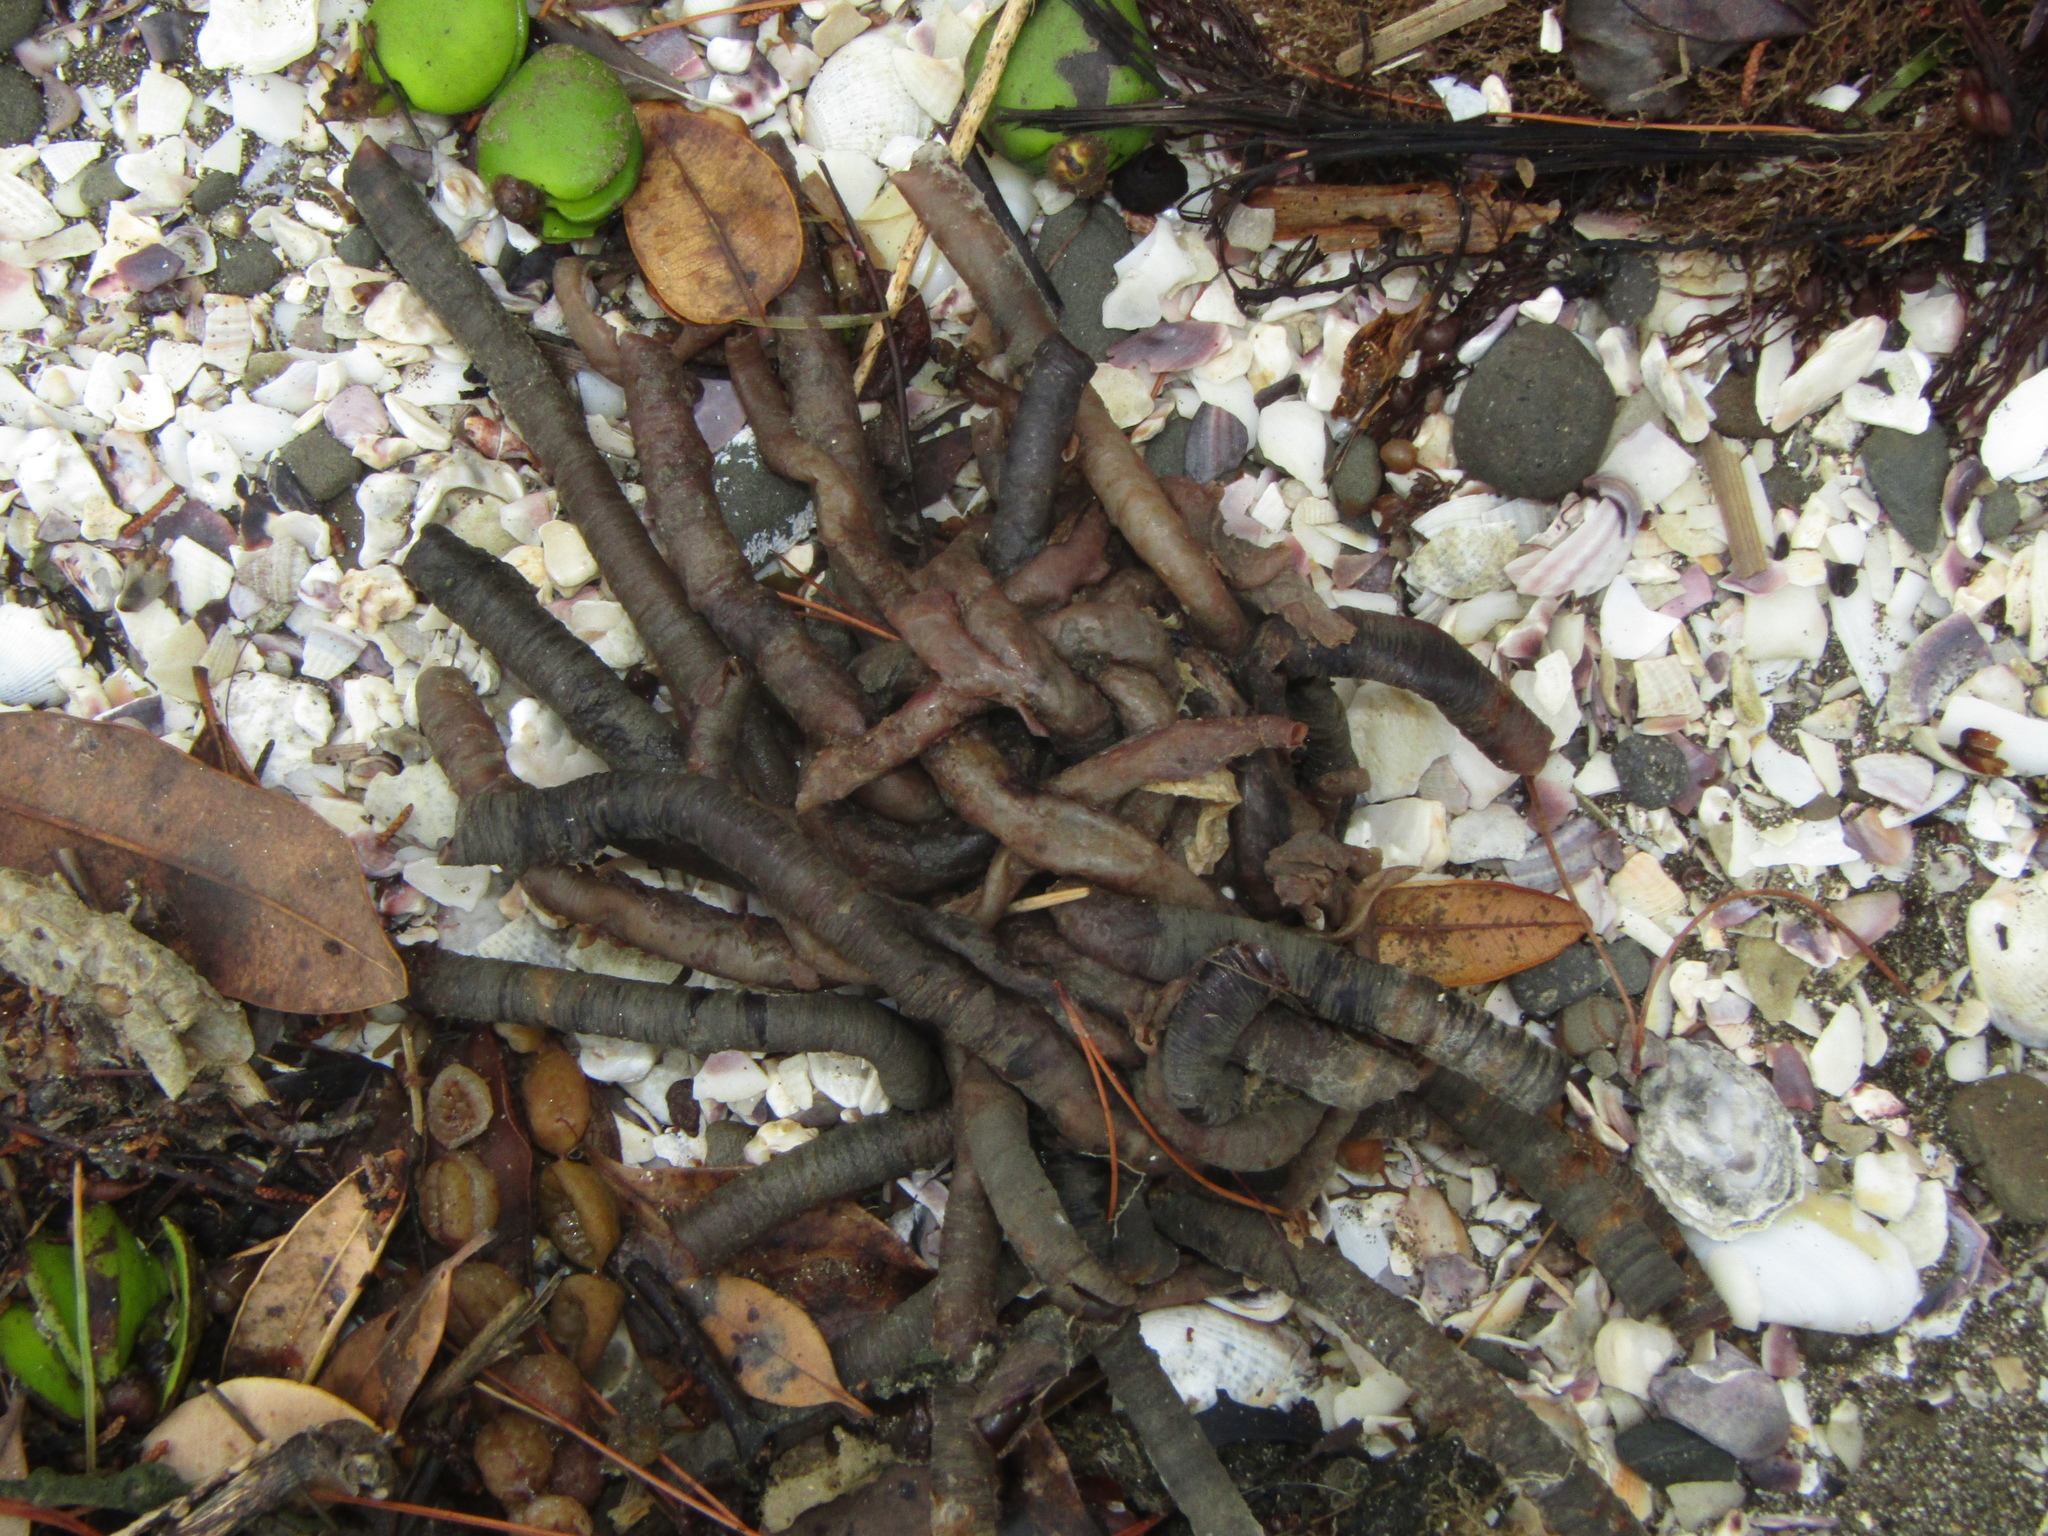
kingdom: Animalia
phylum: Annelida
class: Polychaeta
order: Sabellida
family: Sabellidae
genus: Sabella
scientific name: Sabella spallanzanii
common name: Feather duster worm
